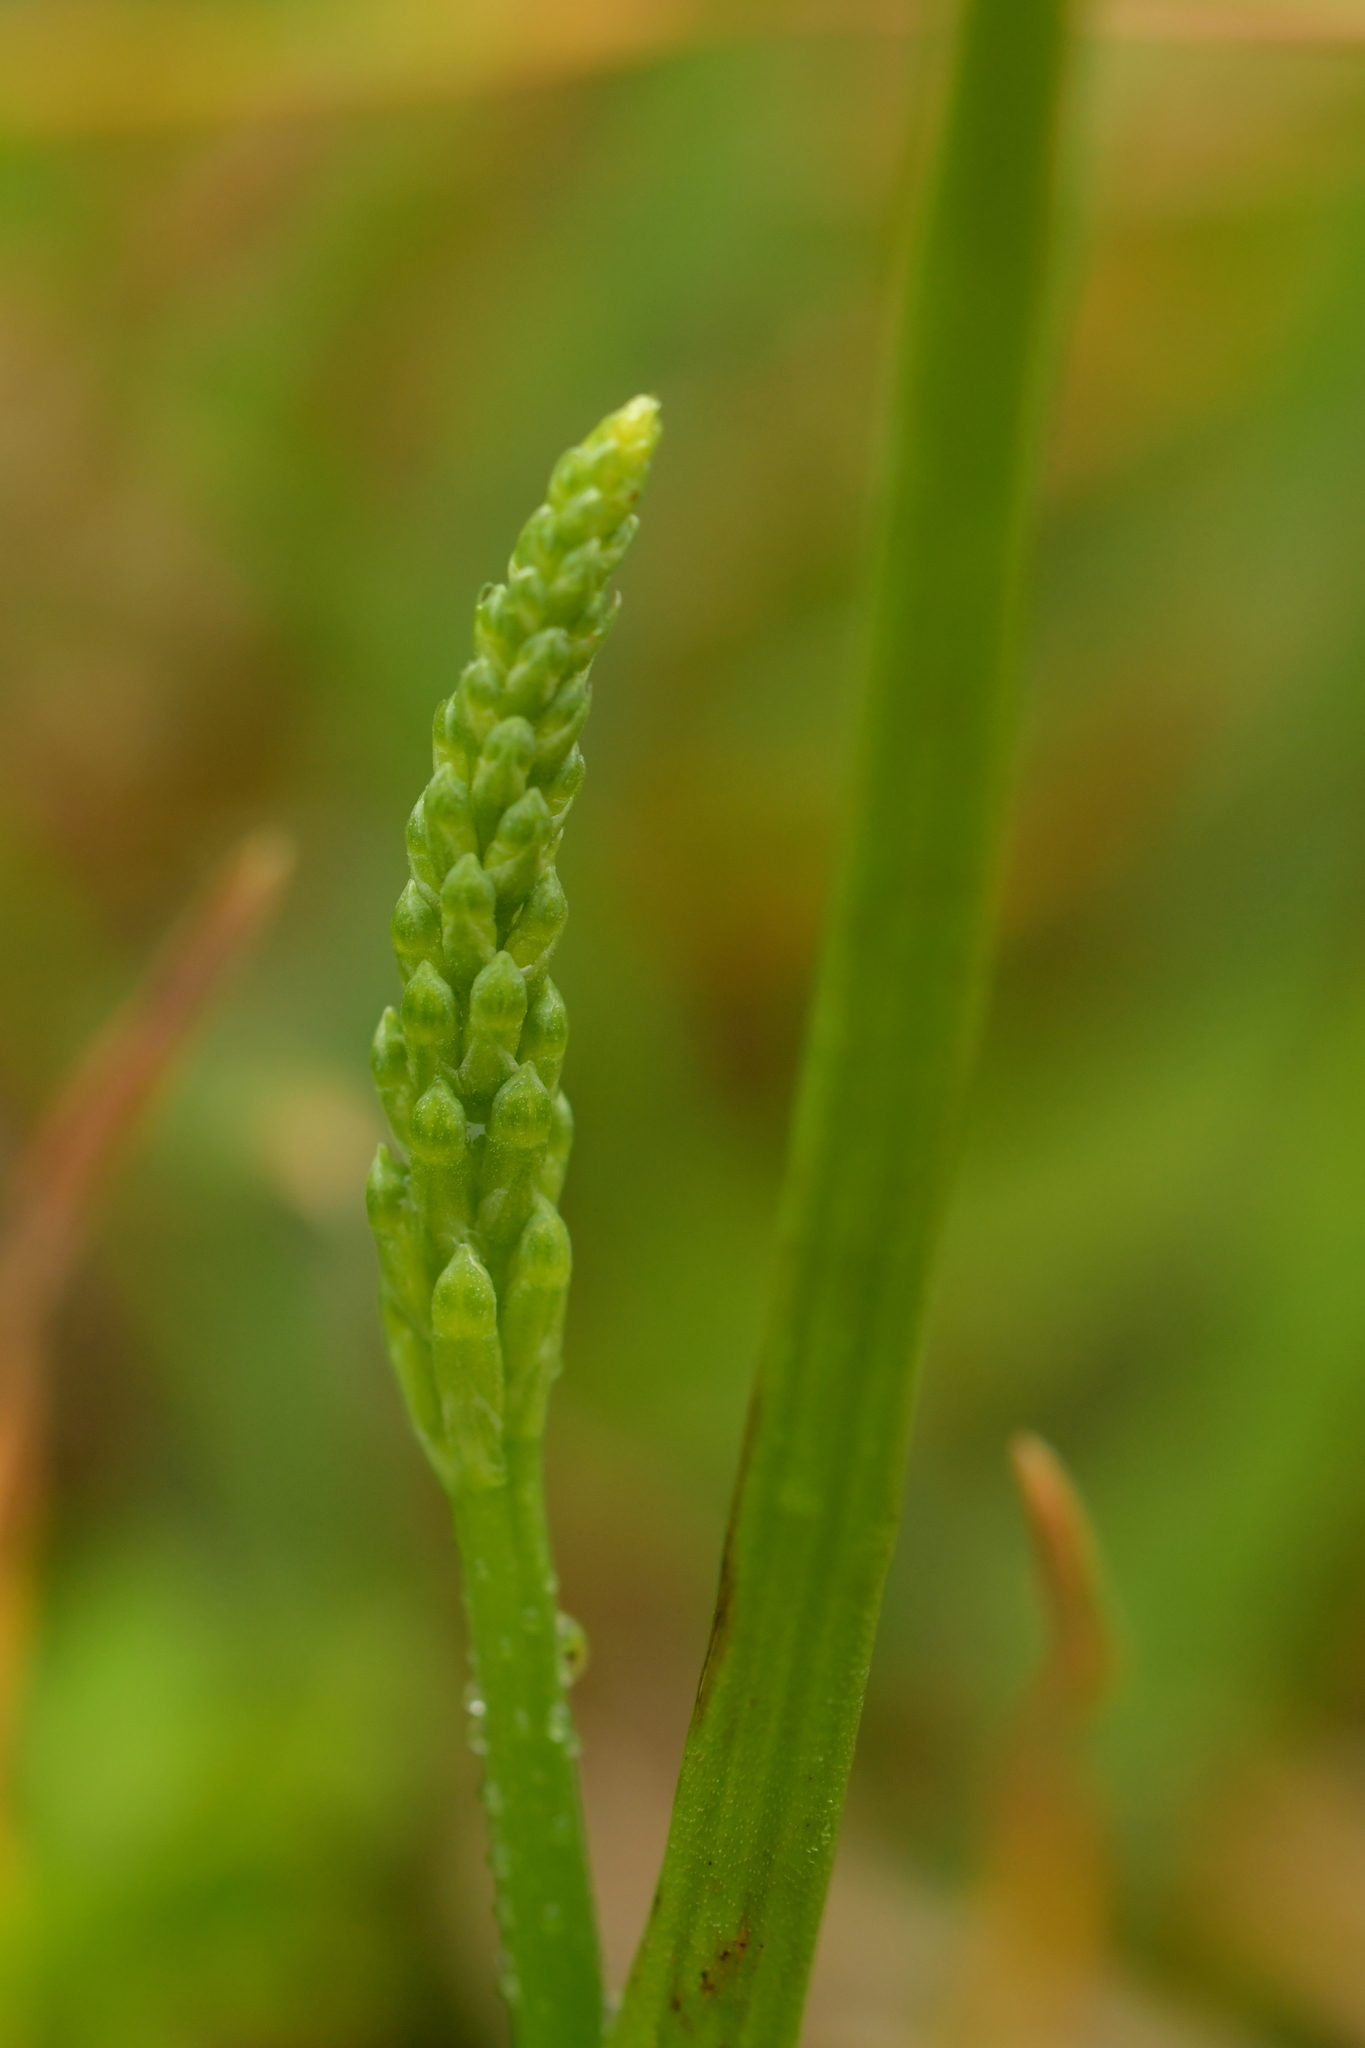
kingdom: Plantae
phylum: Tracheophyta
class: Liliopsida
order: Asparagales
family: Orchidaceae
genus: Microtis
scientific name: Microtis unifolia
